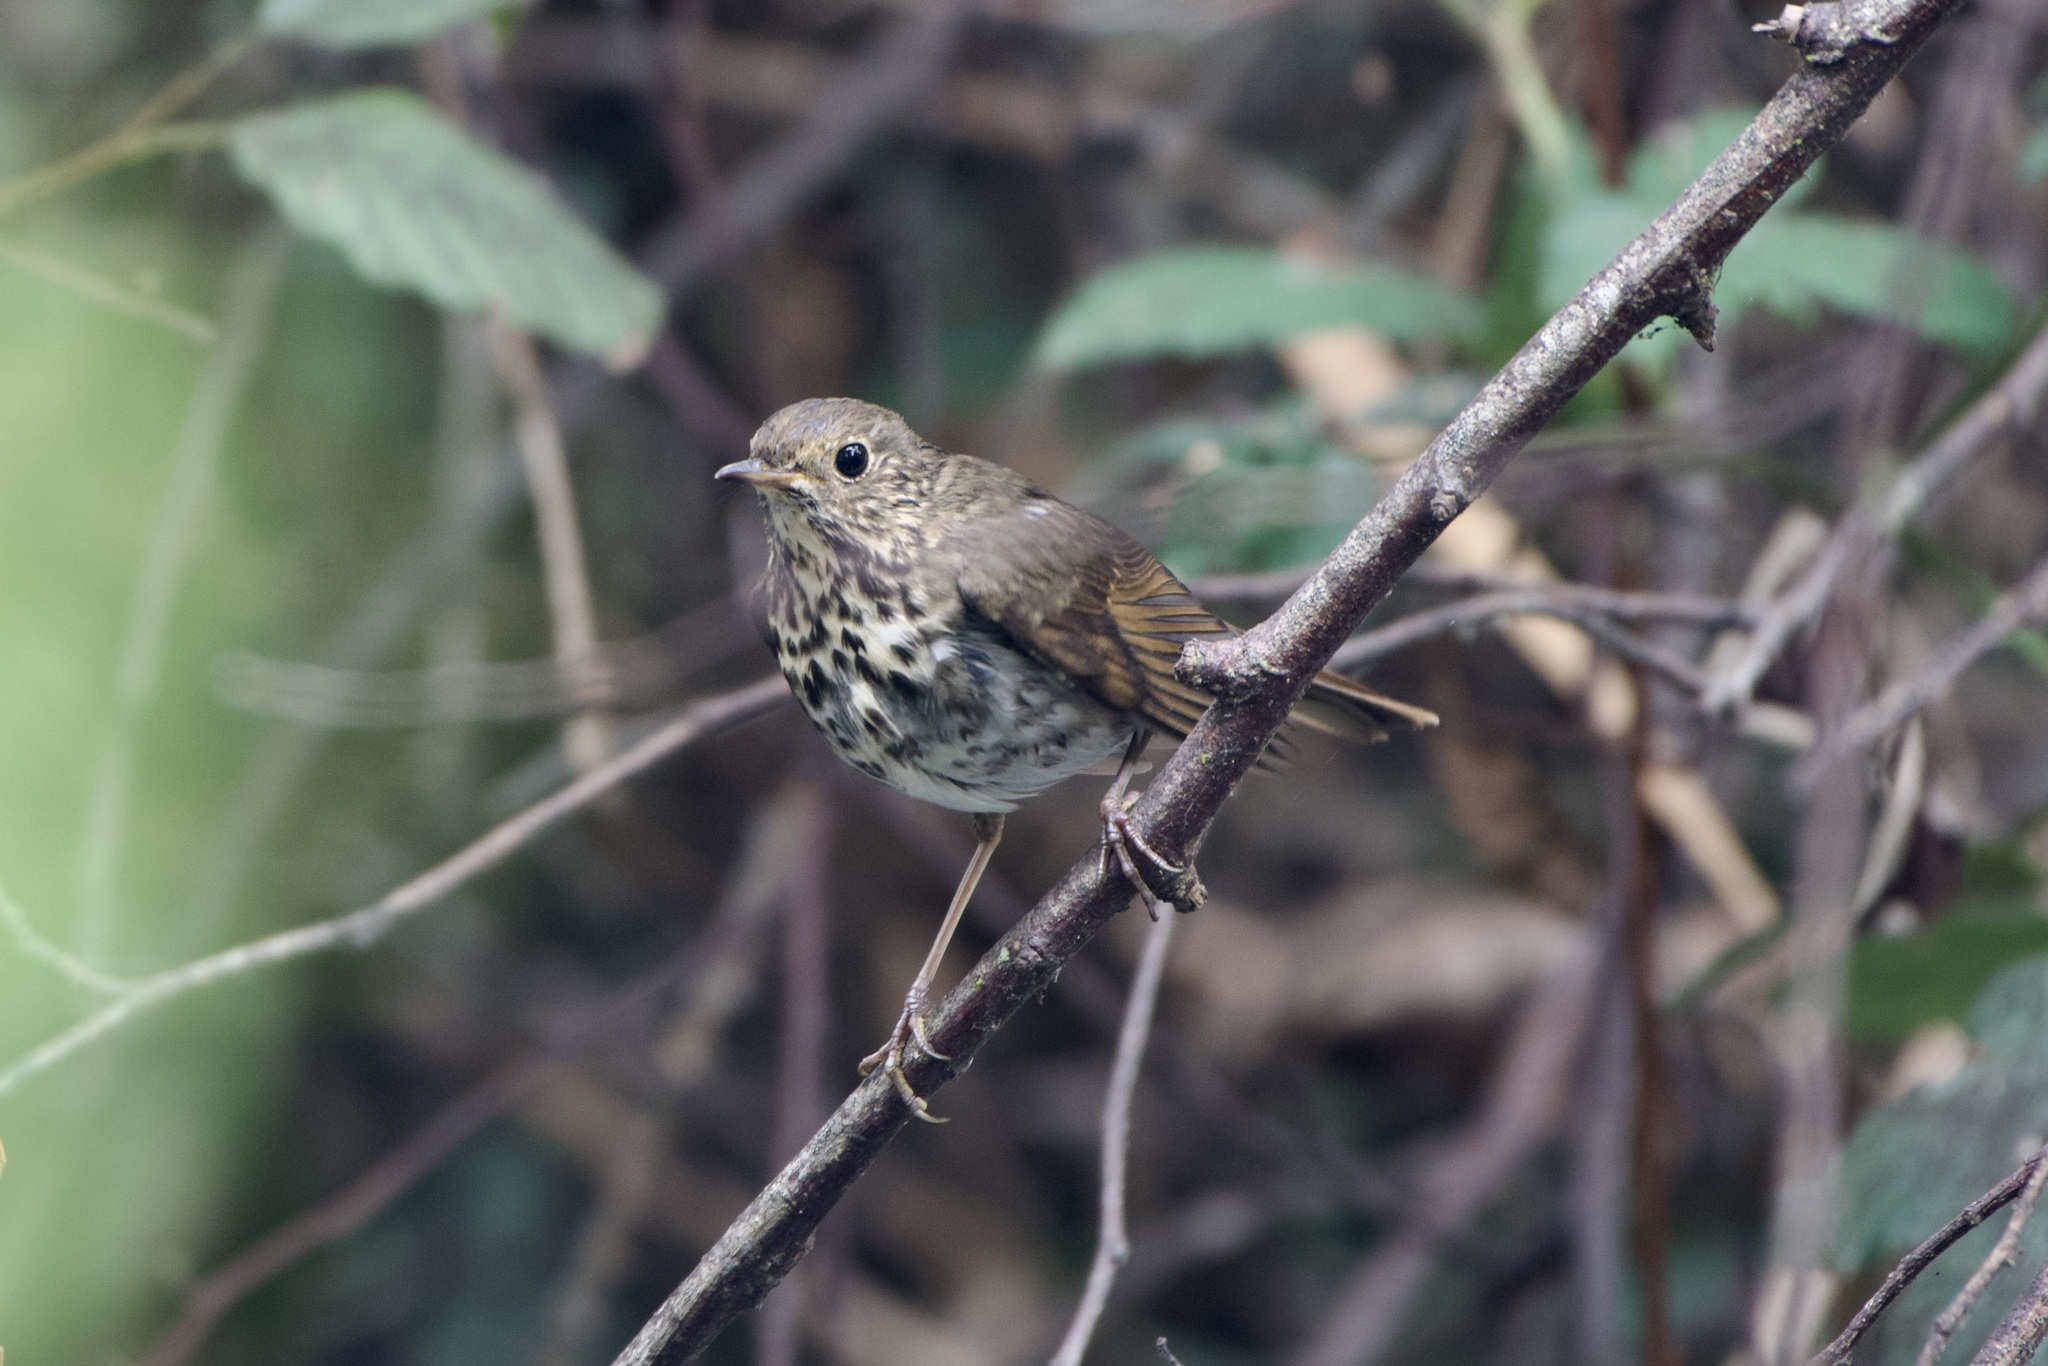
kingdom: Animalia
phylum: Chordata
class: Aves
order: Passeriformes
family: Turdidae
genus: Catharus
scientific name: Catharus guttatus
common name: Hermit thrush
